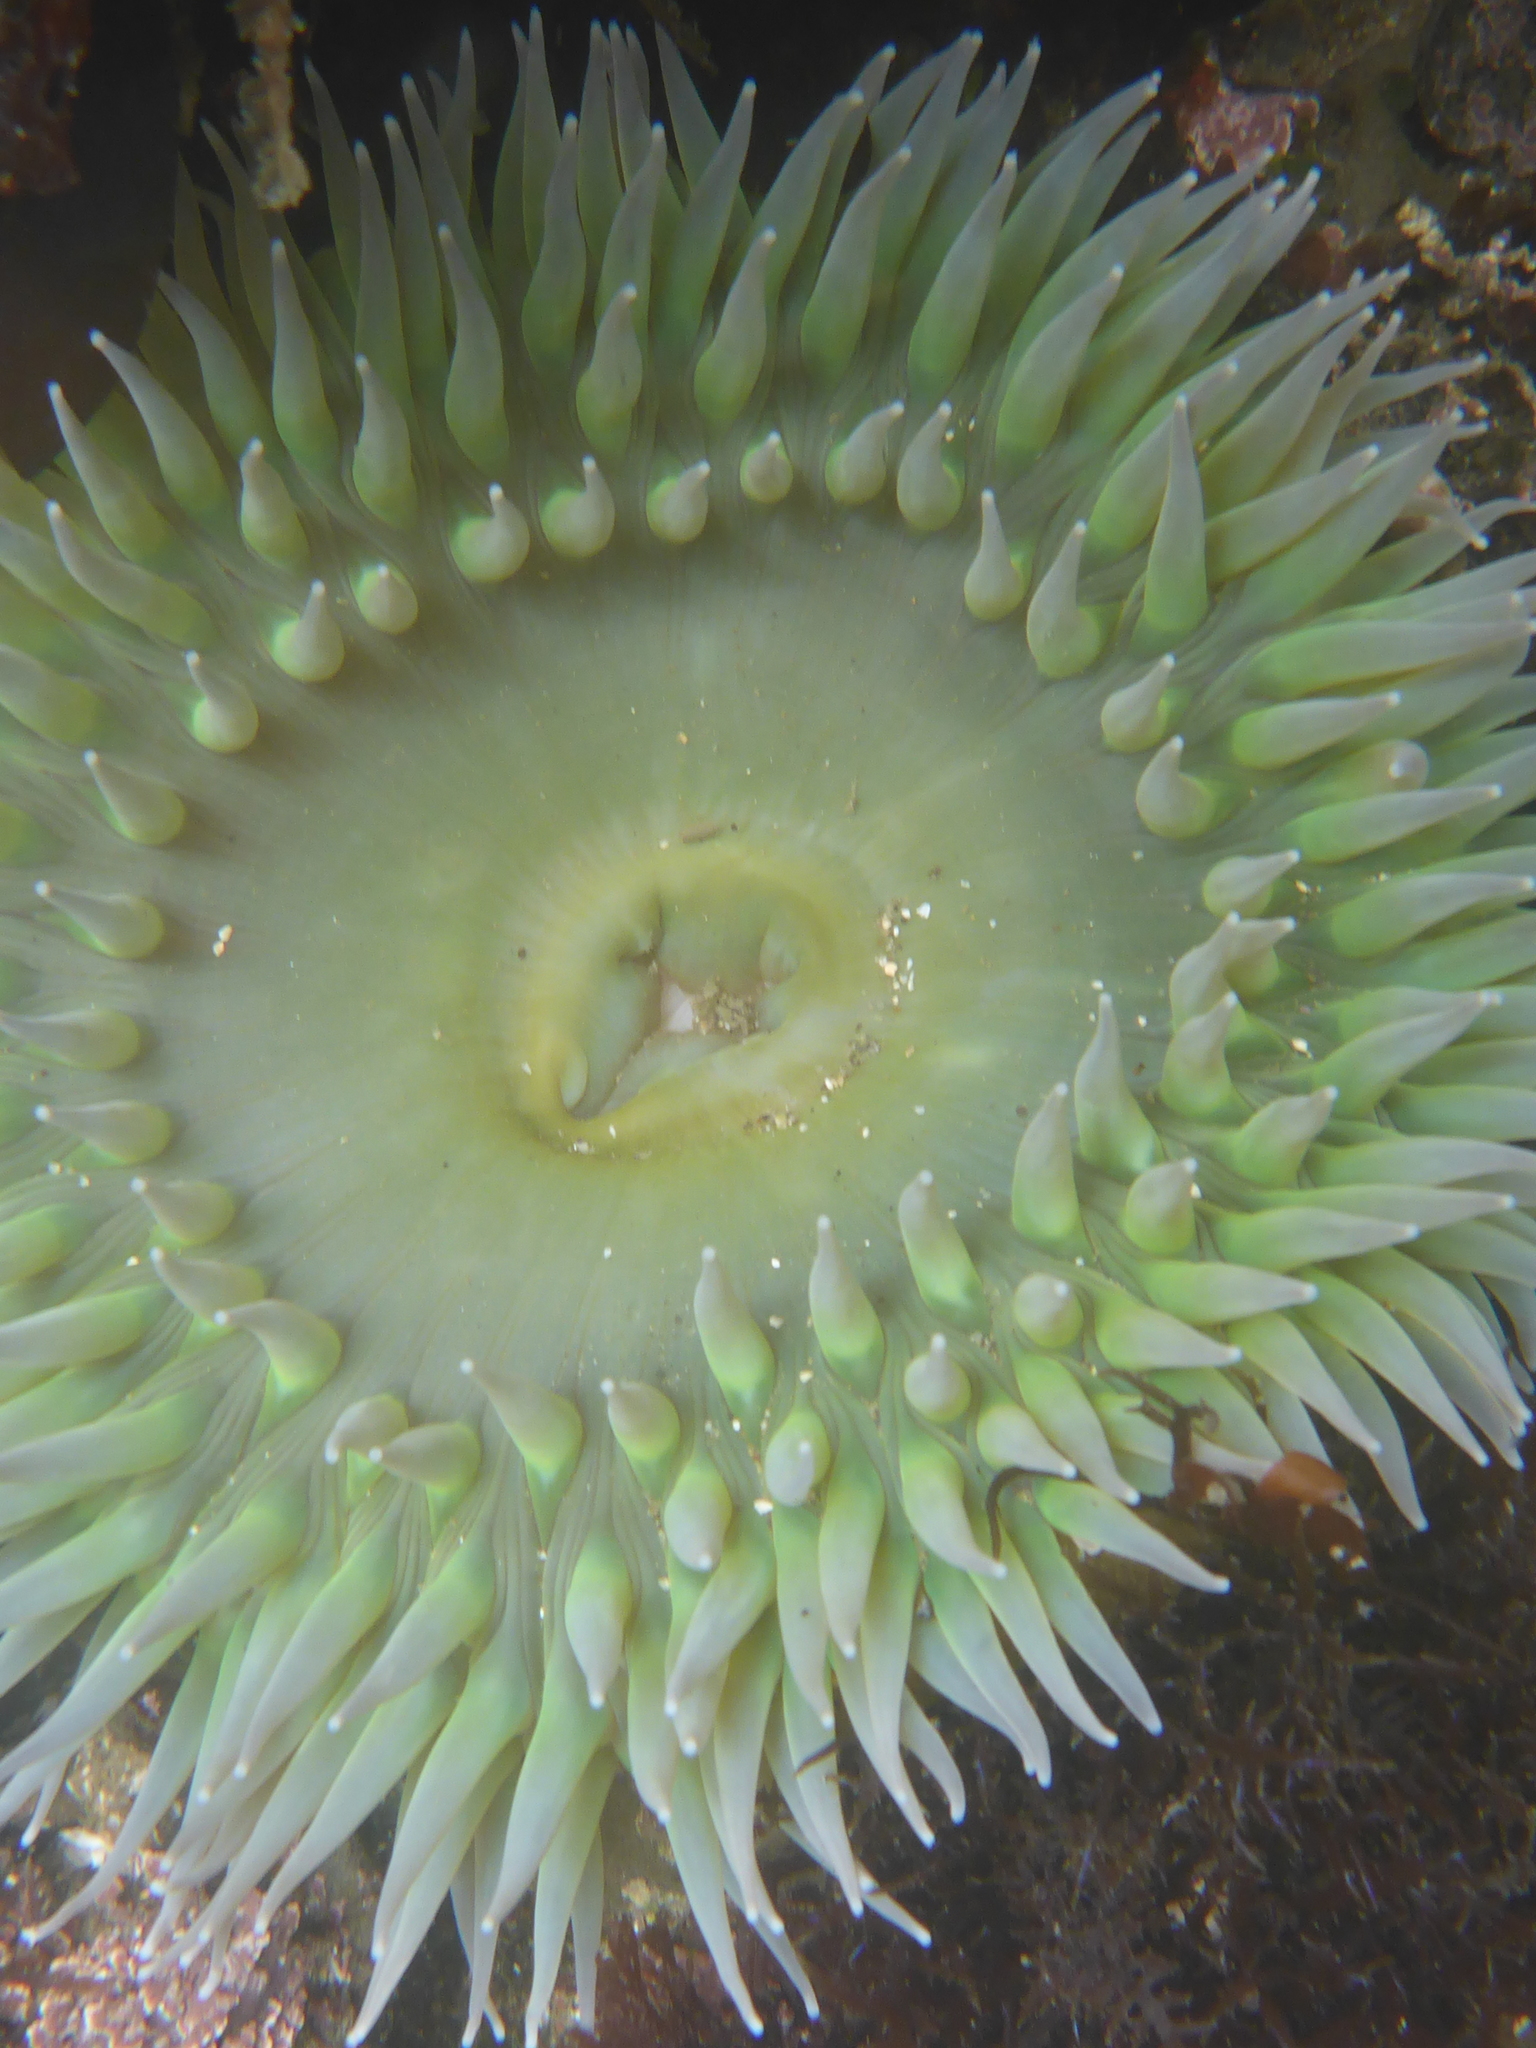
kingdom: Animalia
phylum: Cnidaria
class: Anthozoa
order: Actiniaria
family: Actiniidae
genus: Anthopleura
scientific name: Anthopleura xanthogrammica
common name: Giant green anemone
